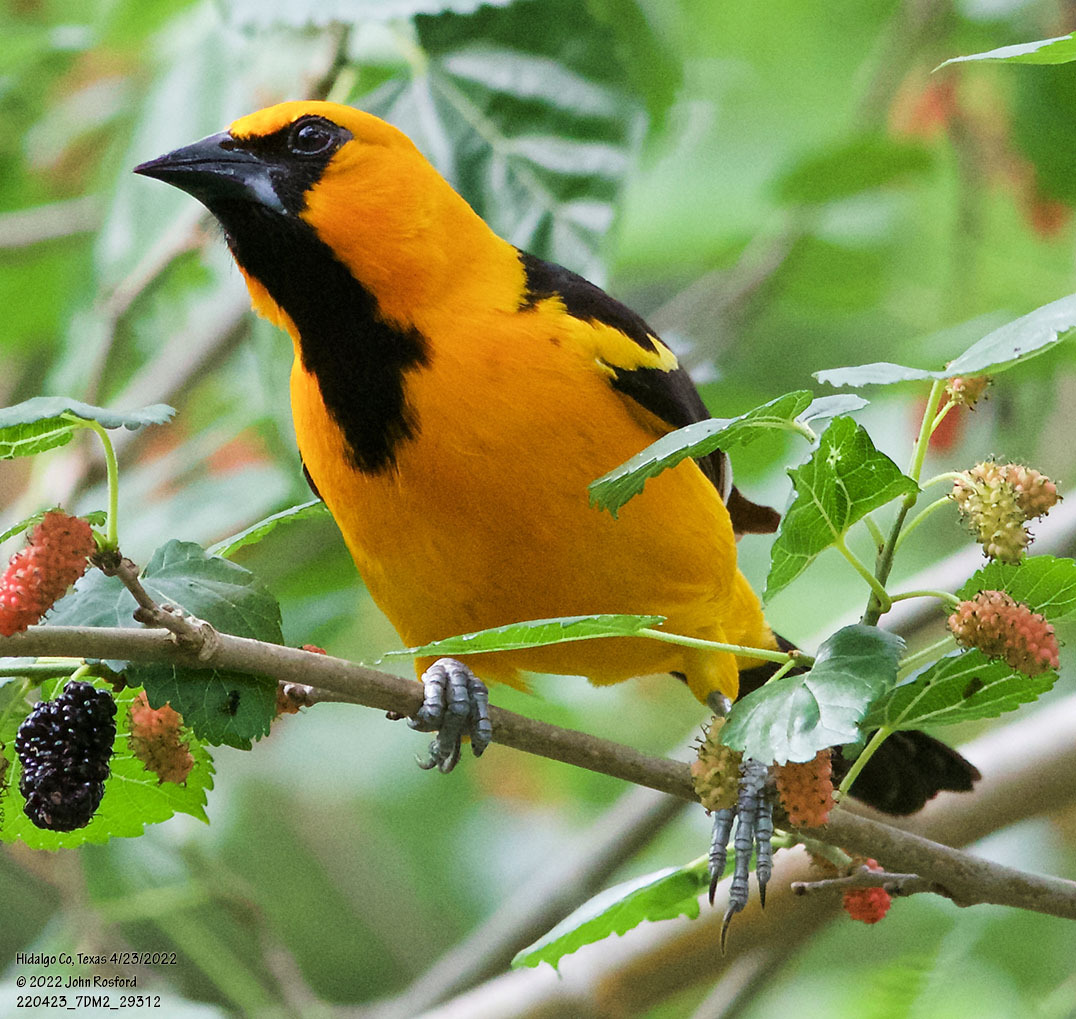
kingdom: Animalia
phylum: Chordata
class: Aves
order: Passeriformes
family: Icteridae
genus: Icterus
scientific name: Icterus gularis
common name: Altamira oriole
